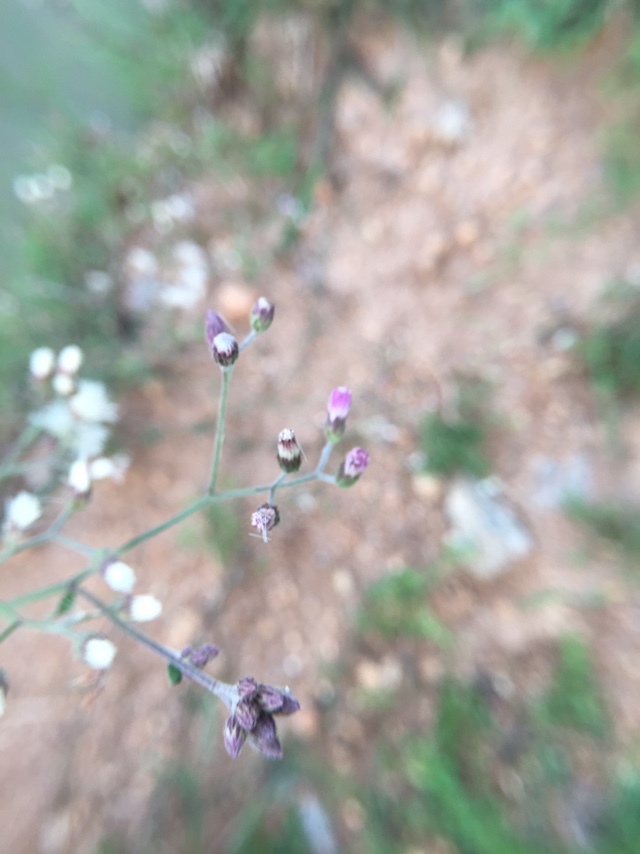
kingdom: Plantae
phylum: Tracheophyta
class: Magnoliopsida
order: Asterales
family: Asteraceae
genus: Cyanthillium
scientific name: Cyanthillium cinereum
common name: Little ironweed
